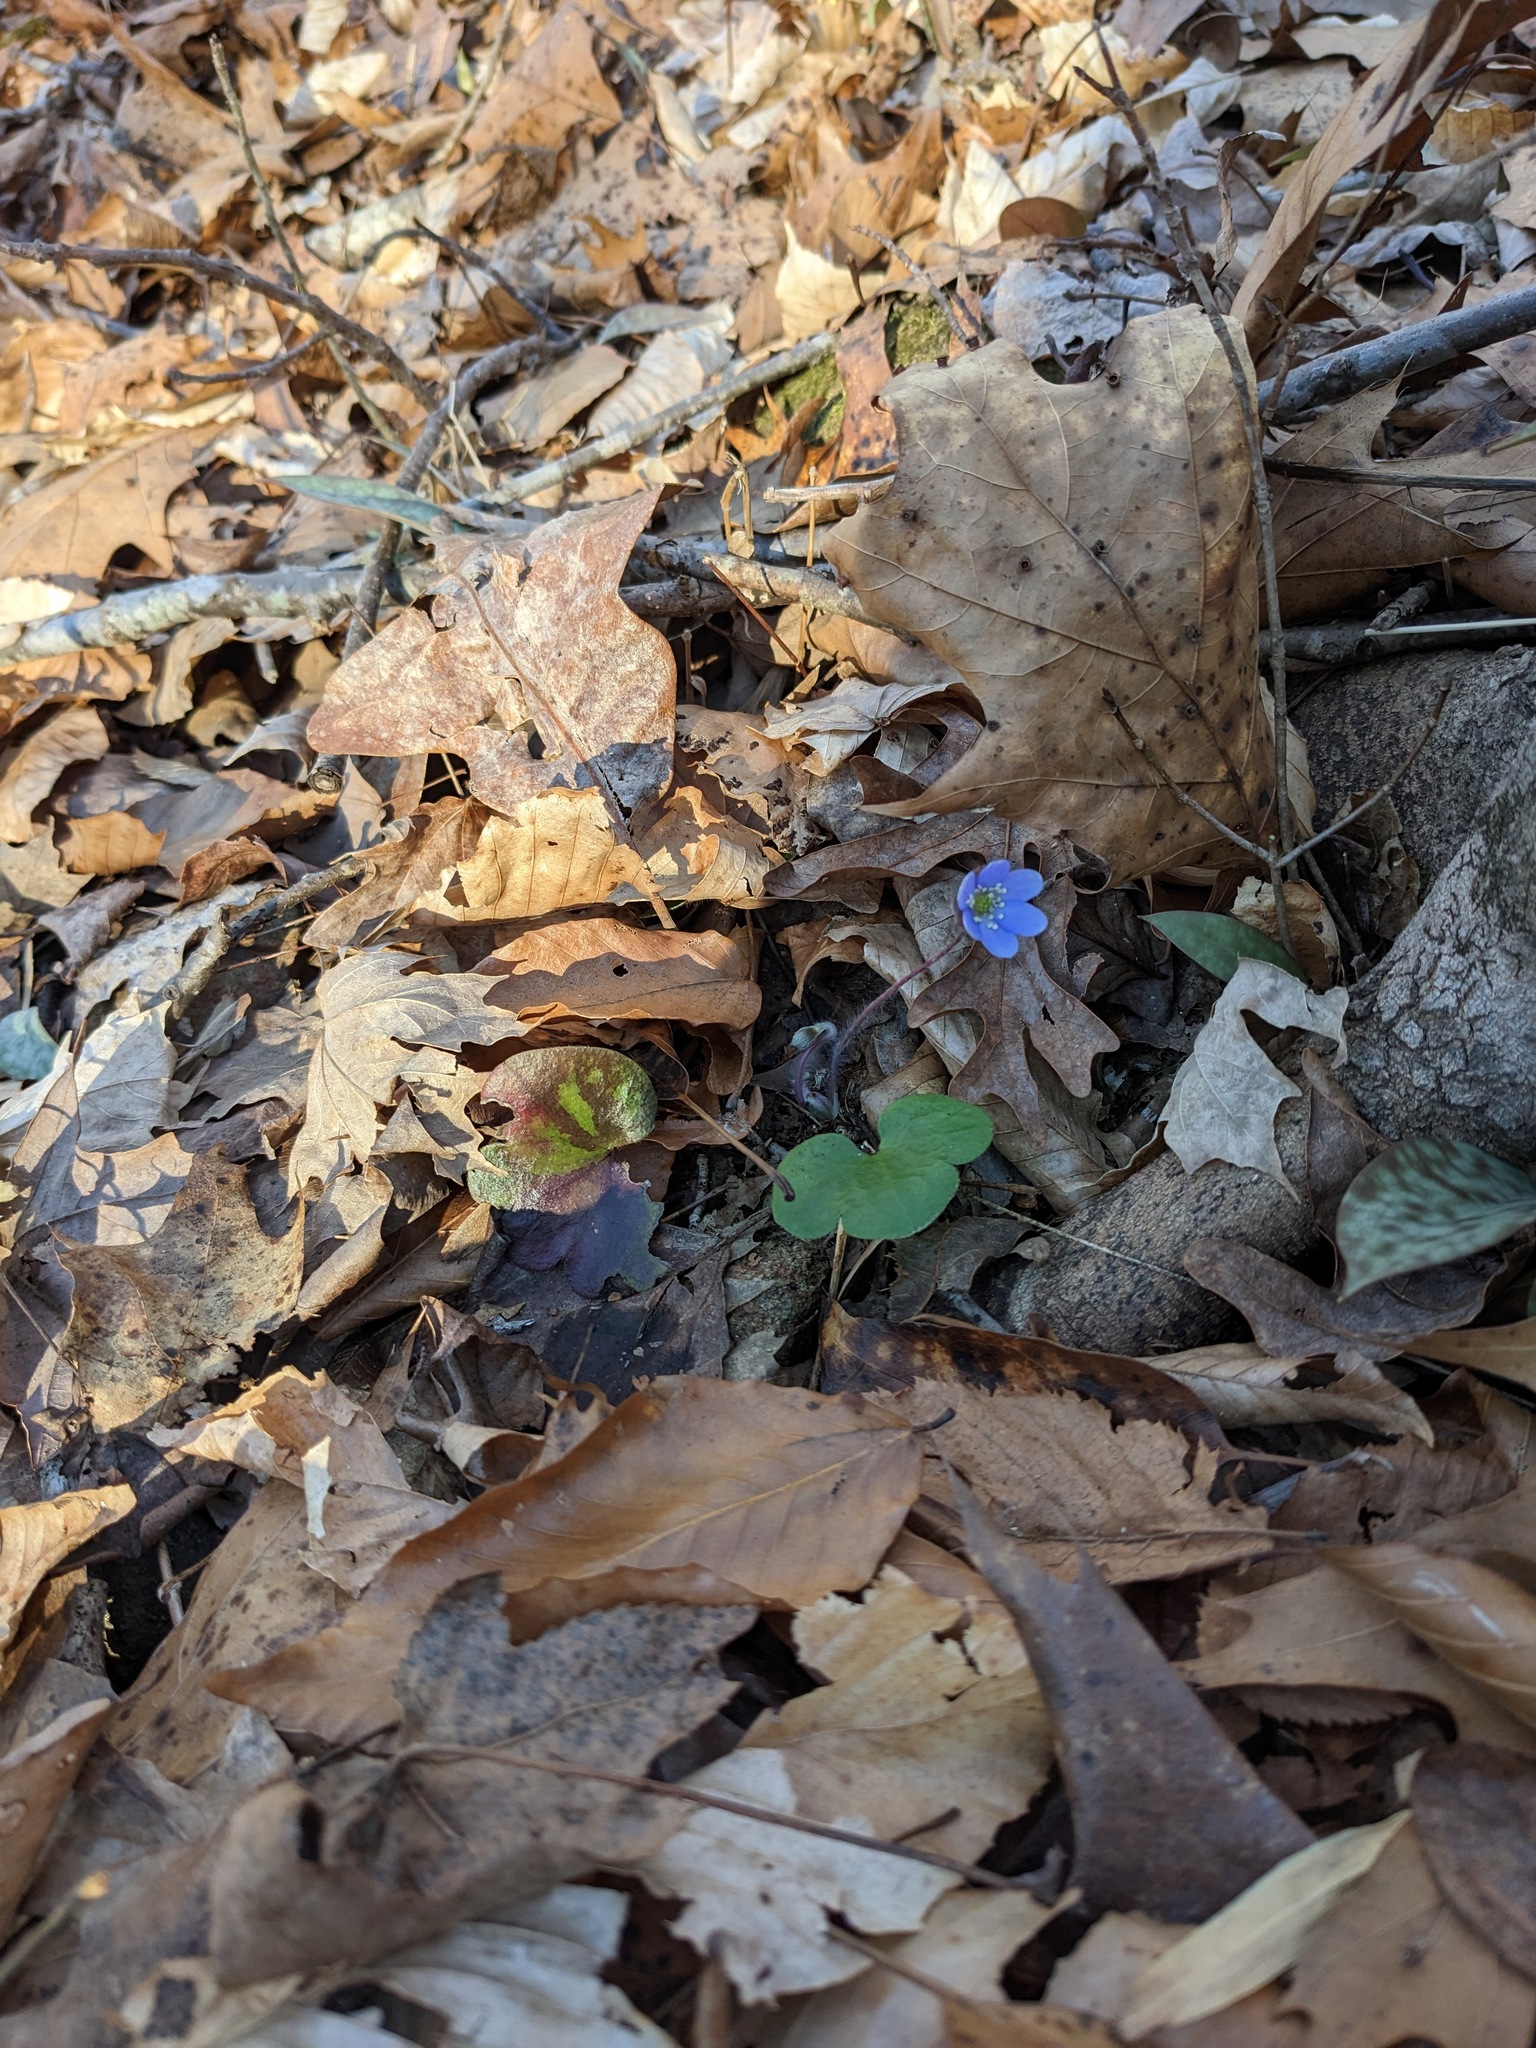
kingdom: Plantae
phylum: Tracheophyta
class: Magnoliopsida
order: Ranunculales
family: Ranunculaceae
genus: Hepatica
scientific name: Hepatica americana
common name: American hepatica
